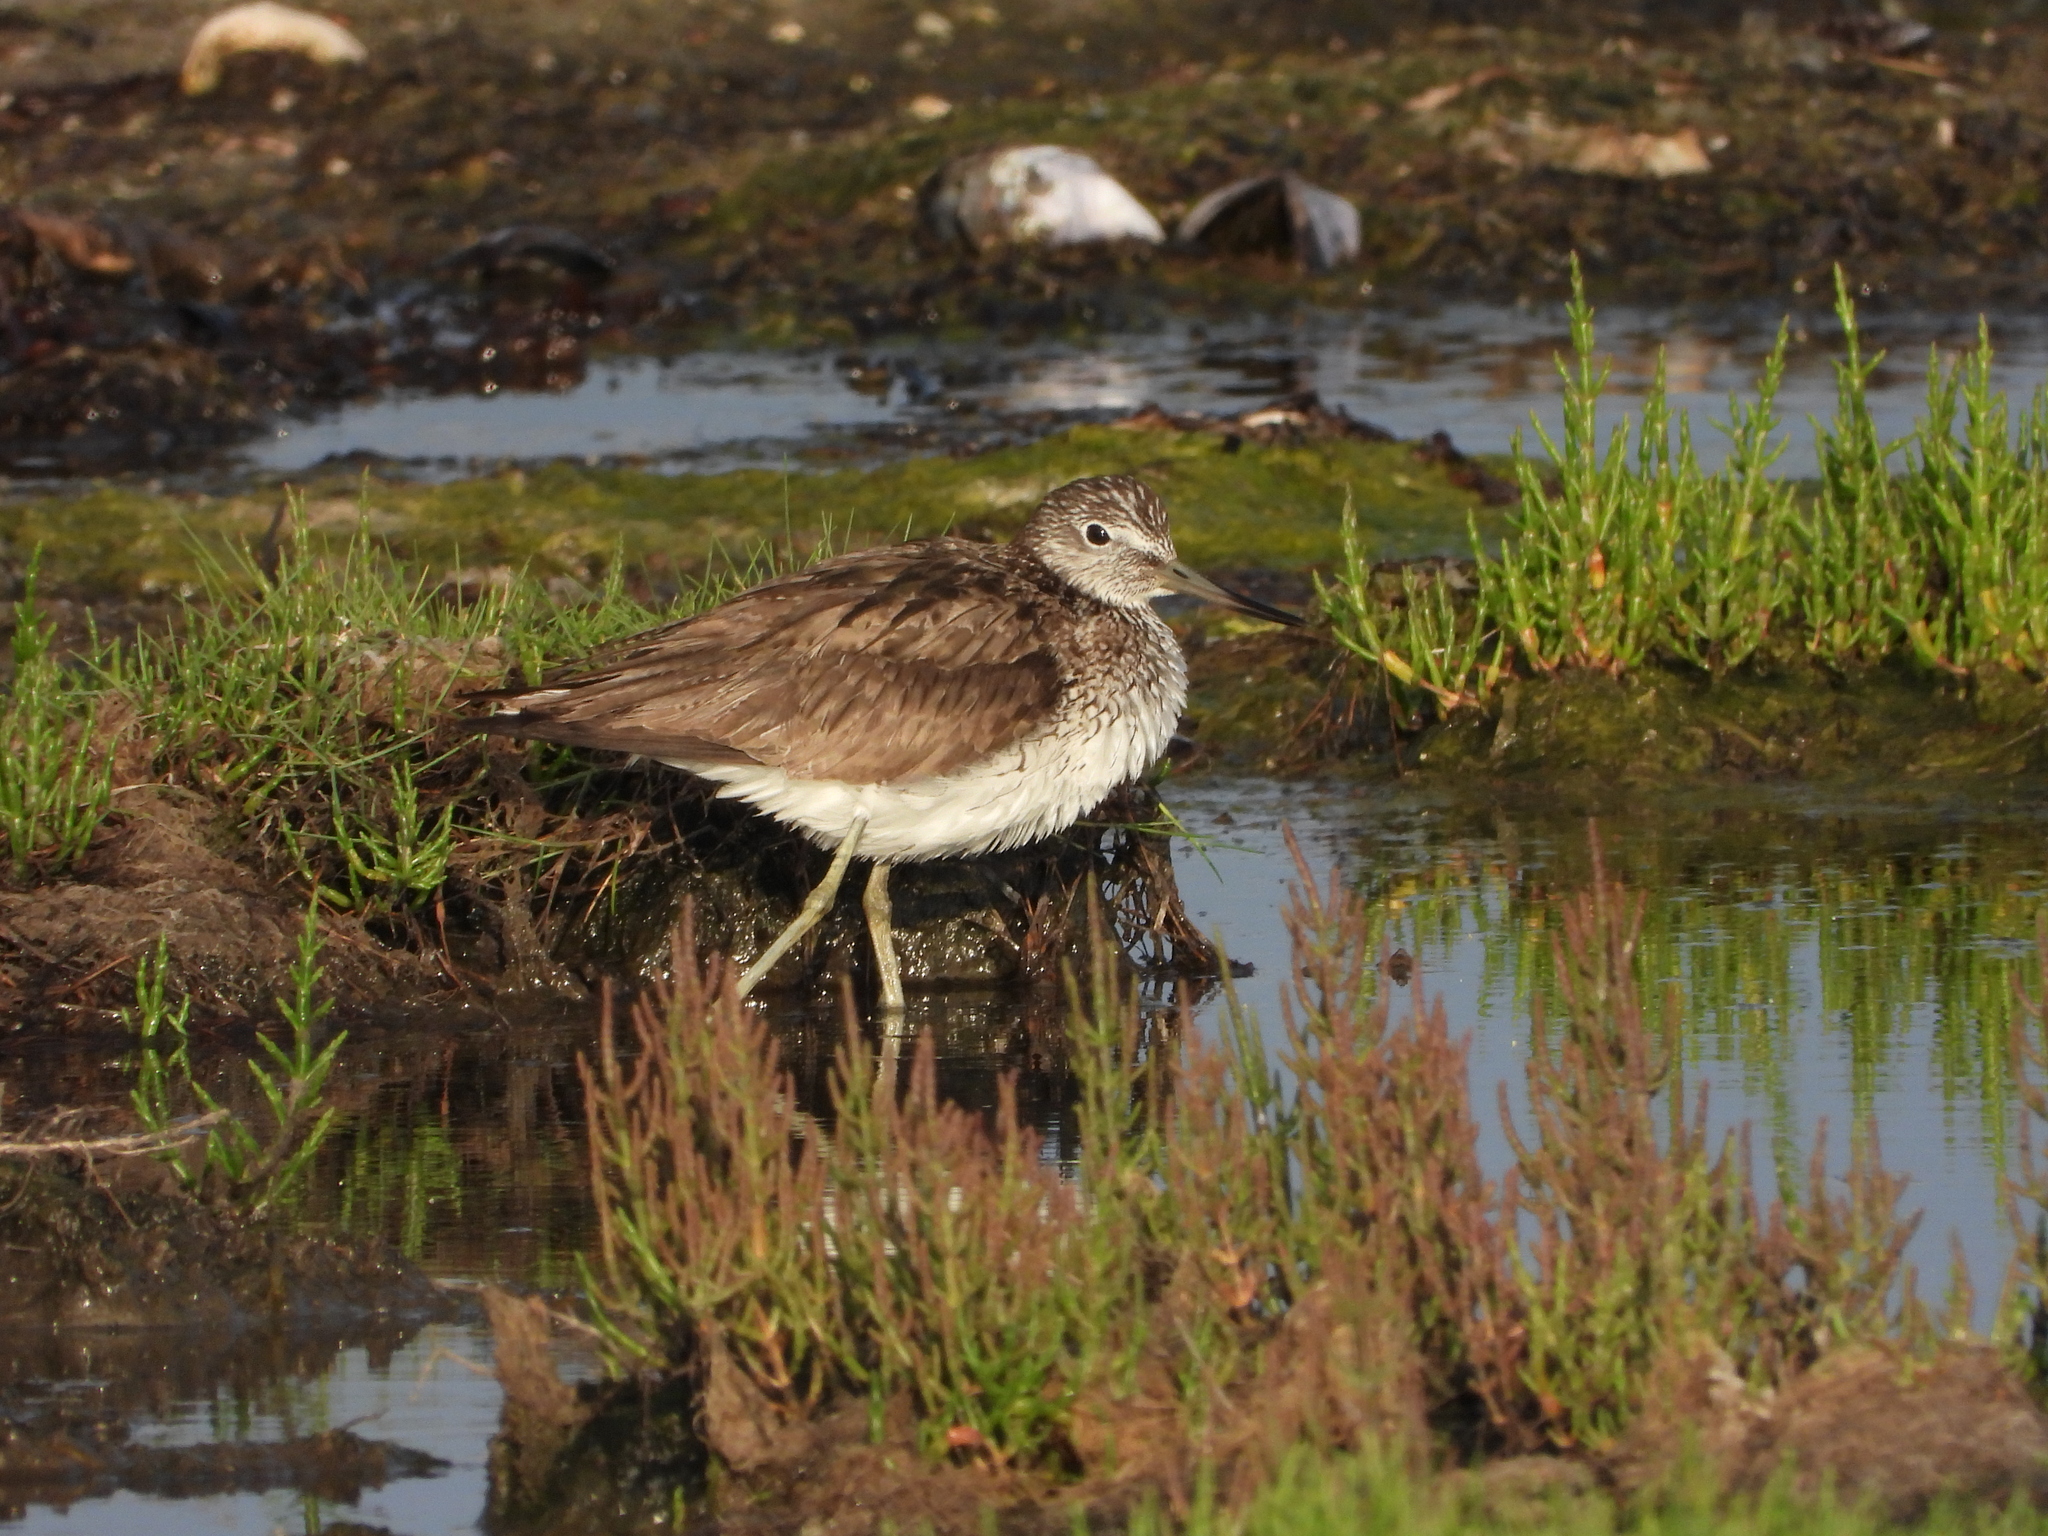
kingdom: Animalia
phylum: Chordata
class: Aves
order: Charadriiformes
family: Scolopacidae
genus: Tringa
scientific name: Tringa ochropus
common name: Green sandpiper
